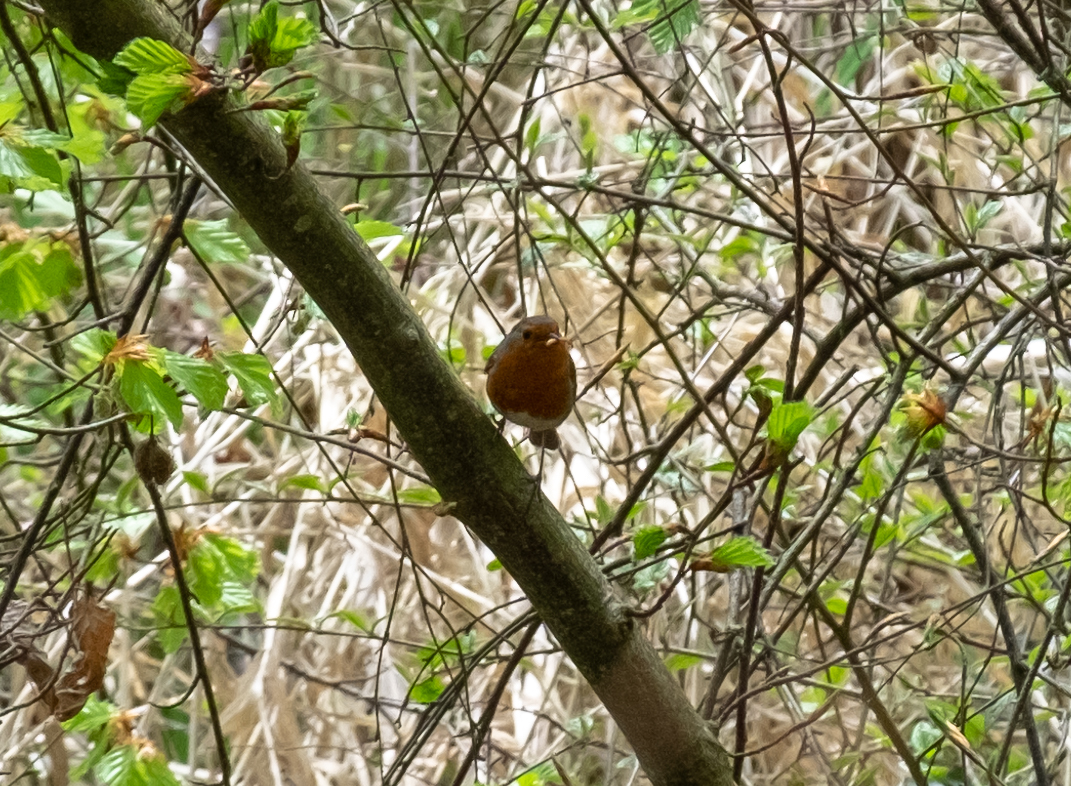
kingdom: Animalia
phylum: Chordata
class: Aves
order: Passeriformes
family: Muscicapidae
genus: Erithacus
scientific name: Erithacus rubecula
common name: European robin
